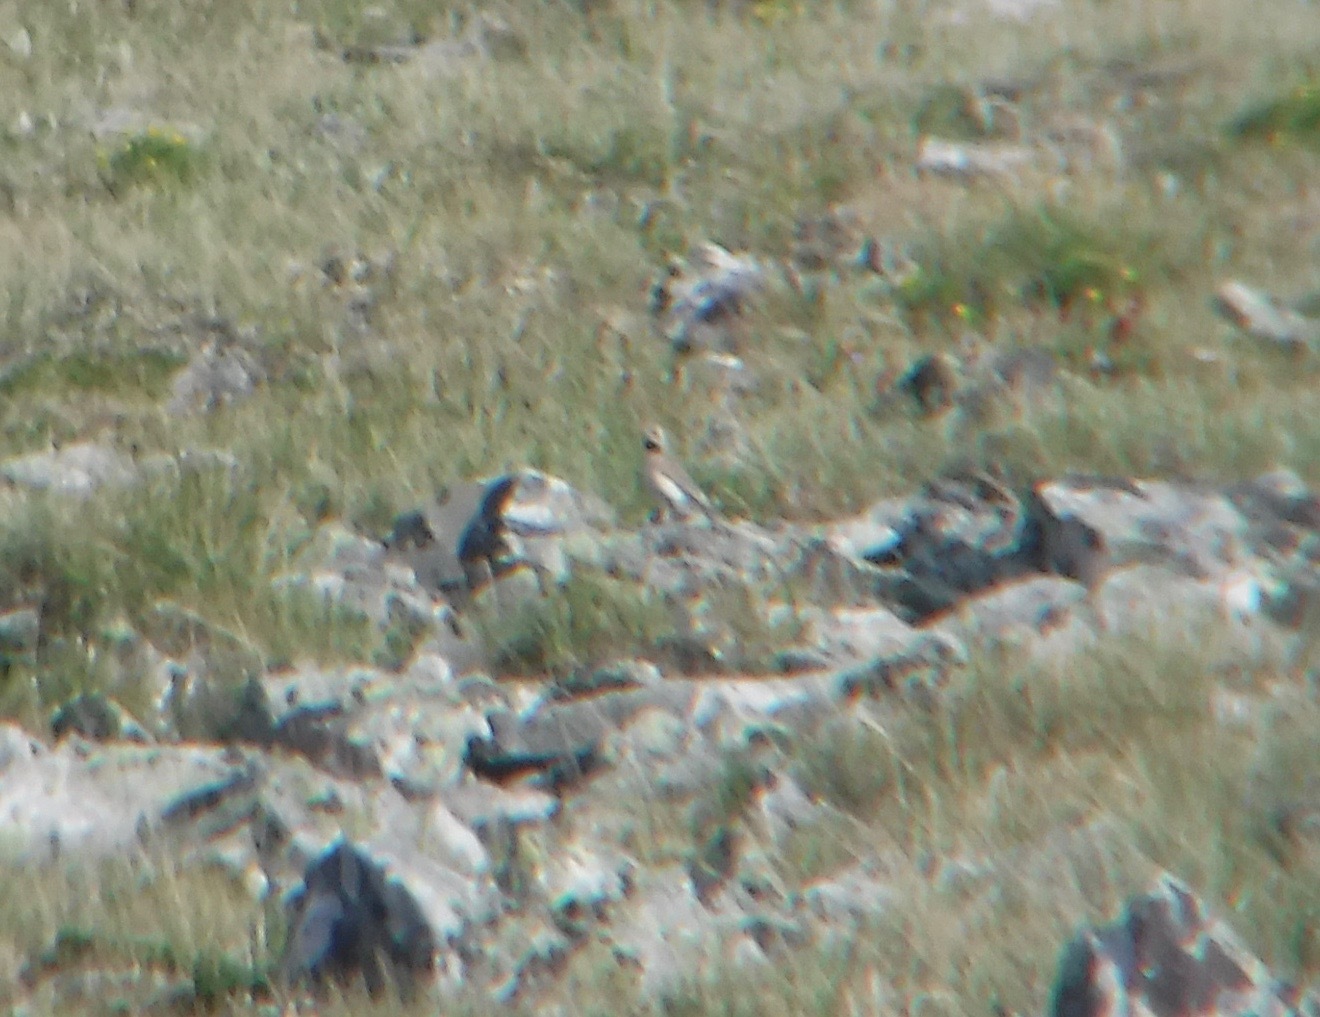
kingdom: Animalia
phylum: Chordata
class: Aves
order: Passeriformes
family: Alaudidae
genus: Eremophila
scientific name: Eremophila alpestris
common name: Horned lark
